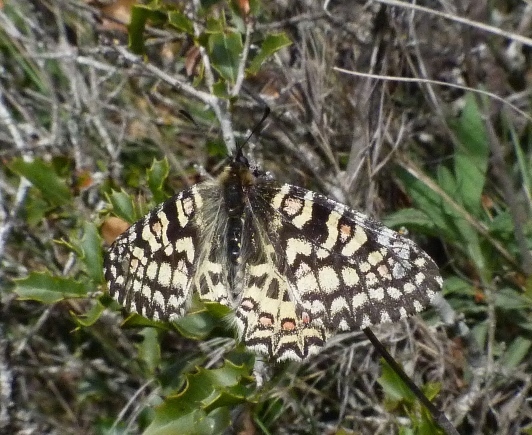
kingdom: Animalia
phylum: Arthropoda
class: Insecta
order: Lepidoptera
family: Papilionidae
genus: Zerynthia
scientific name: Zerynthia rumina
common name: Spanish festoon
